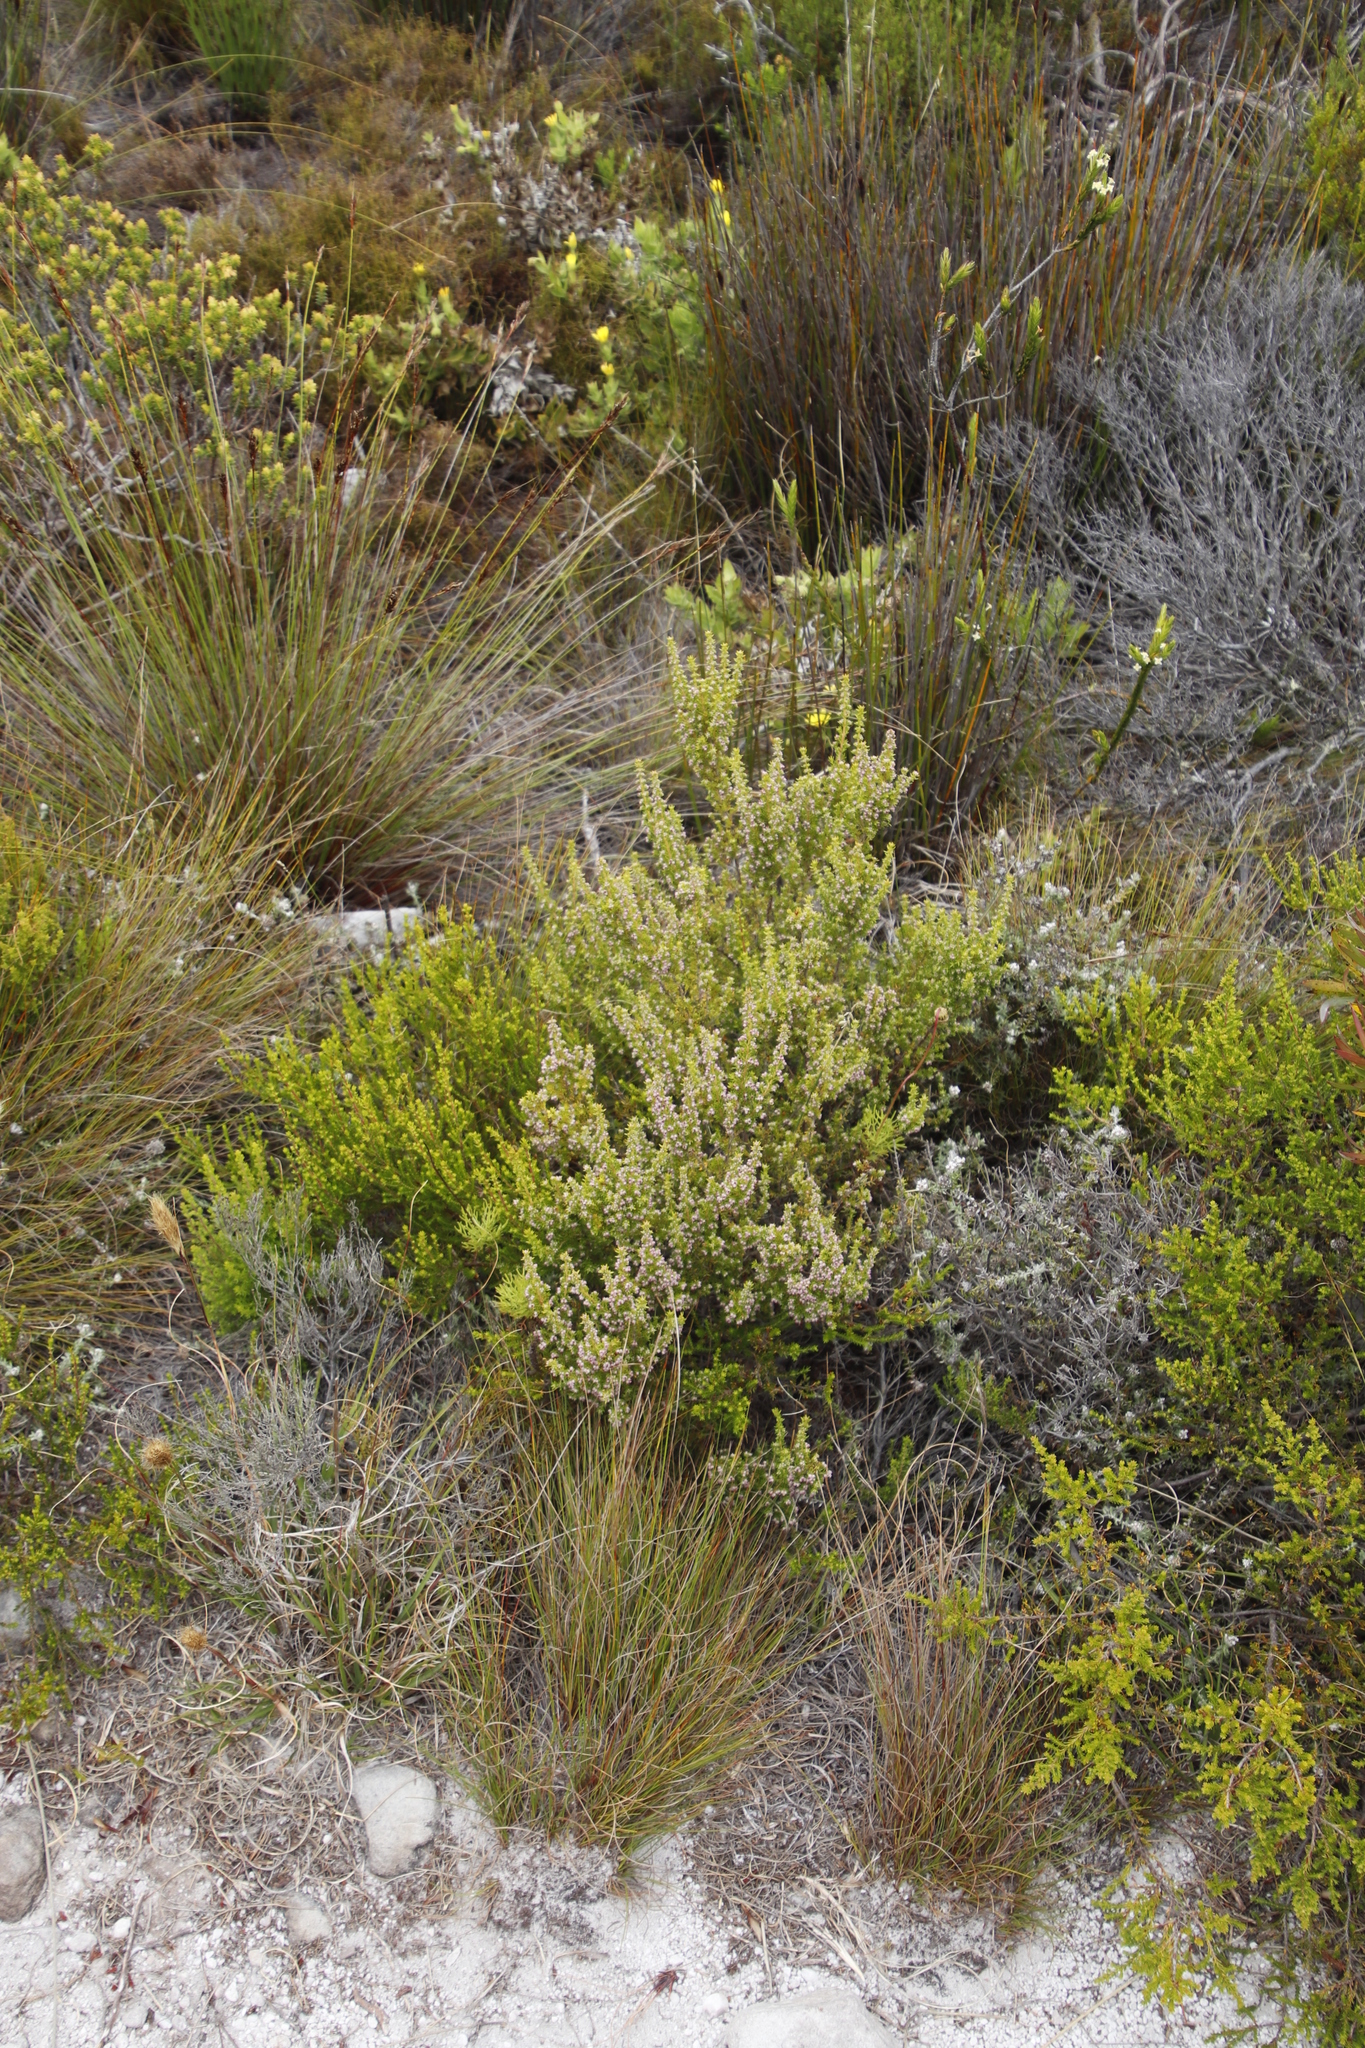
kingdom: Plantae
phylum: Tracheophyta
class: Magnoliopsida
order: Ericales
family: Ericaceae
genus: Erica
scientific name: Erica hispidula
